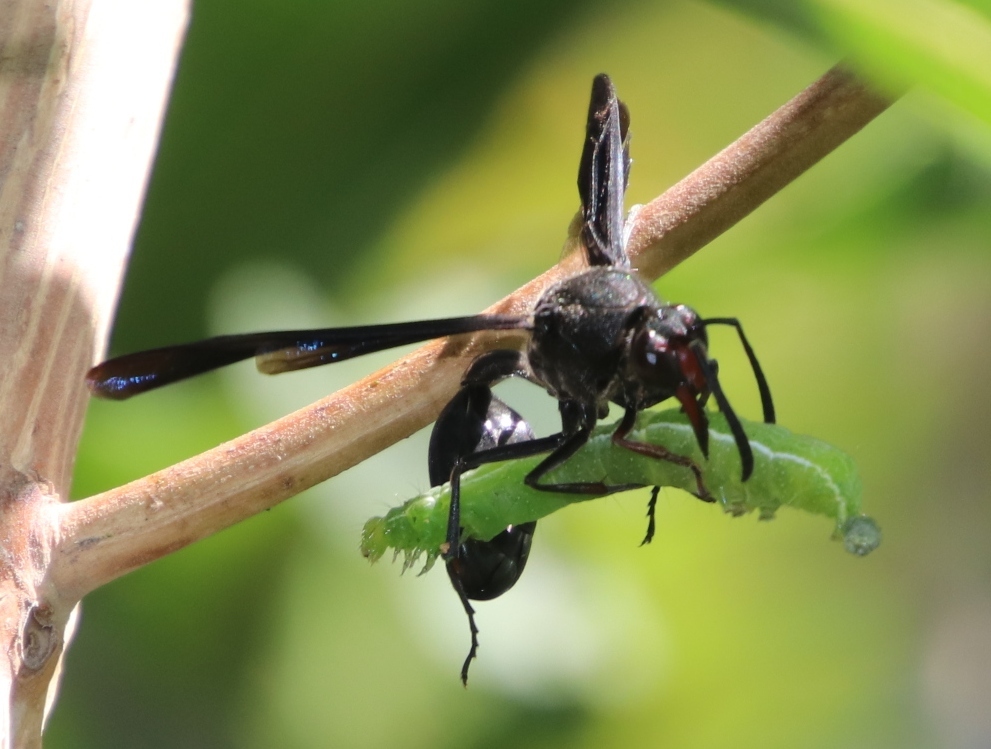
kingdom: Animalia
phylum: Arthropoda
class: Insecta
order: Hymenoptera
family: Eumenidae
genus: Delta
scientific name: Delta bonellii
